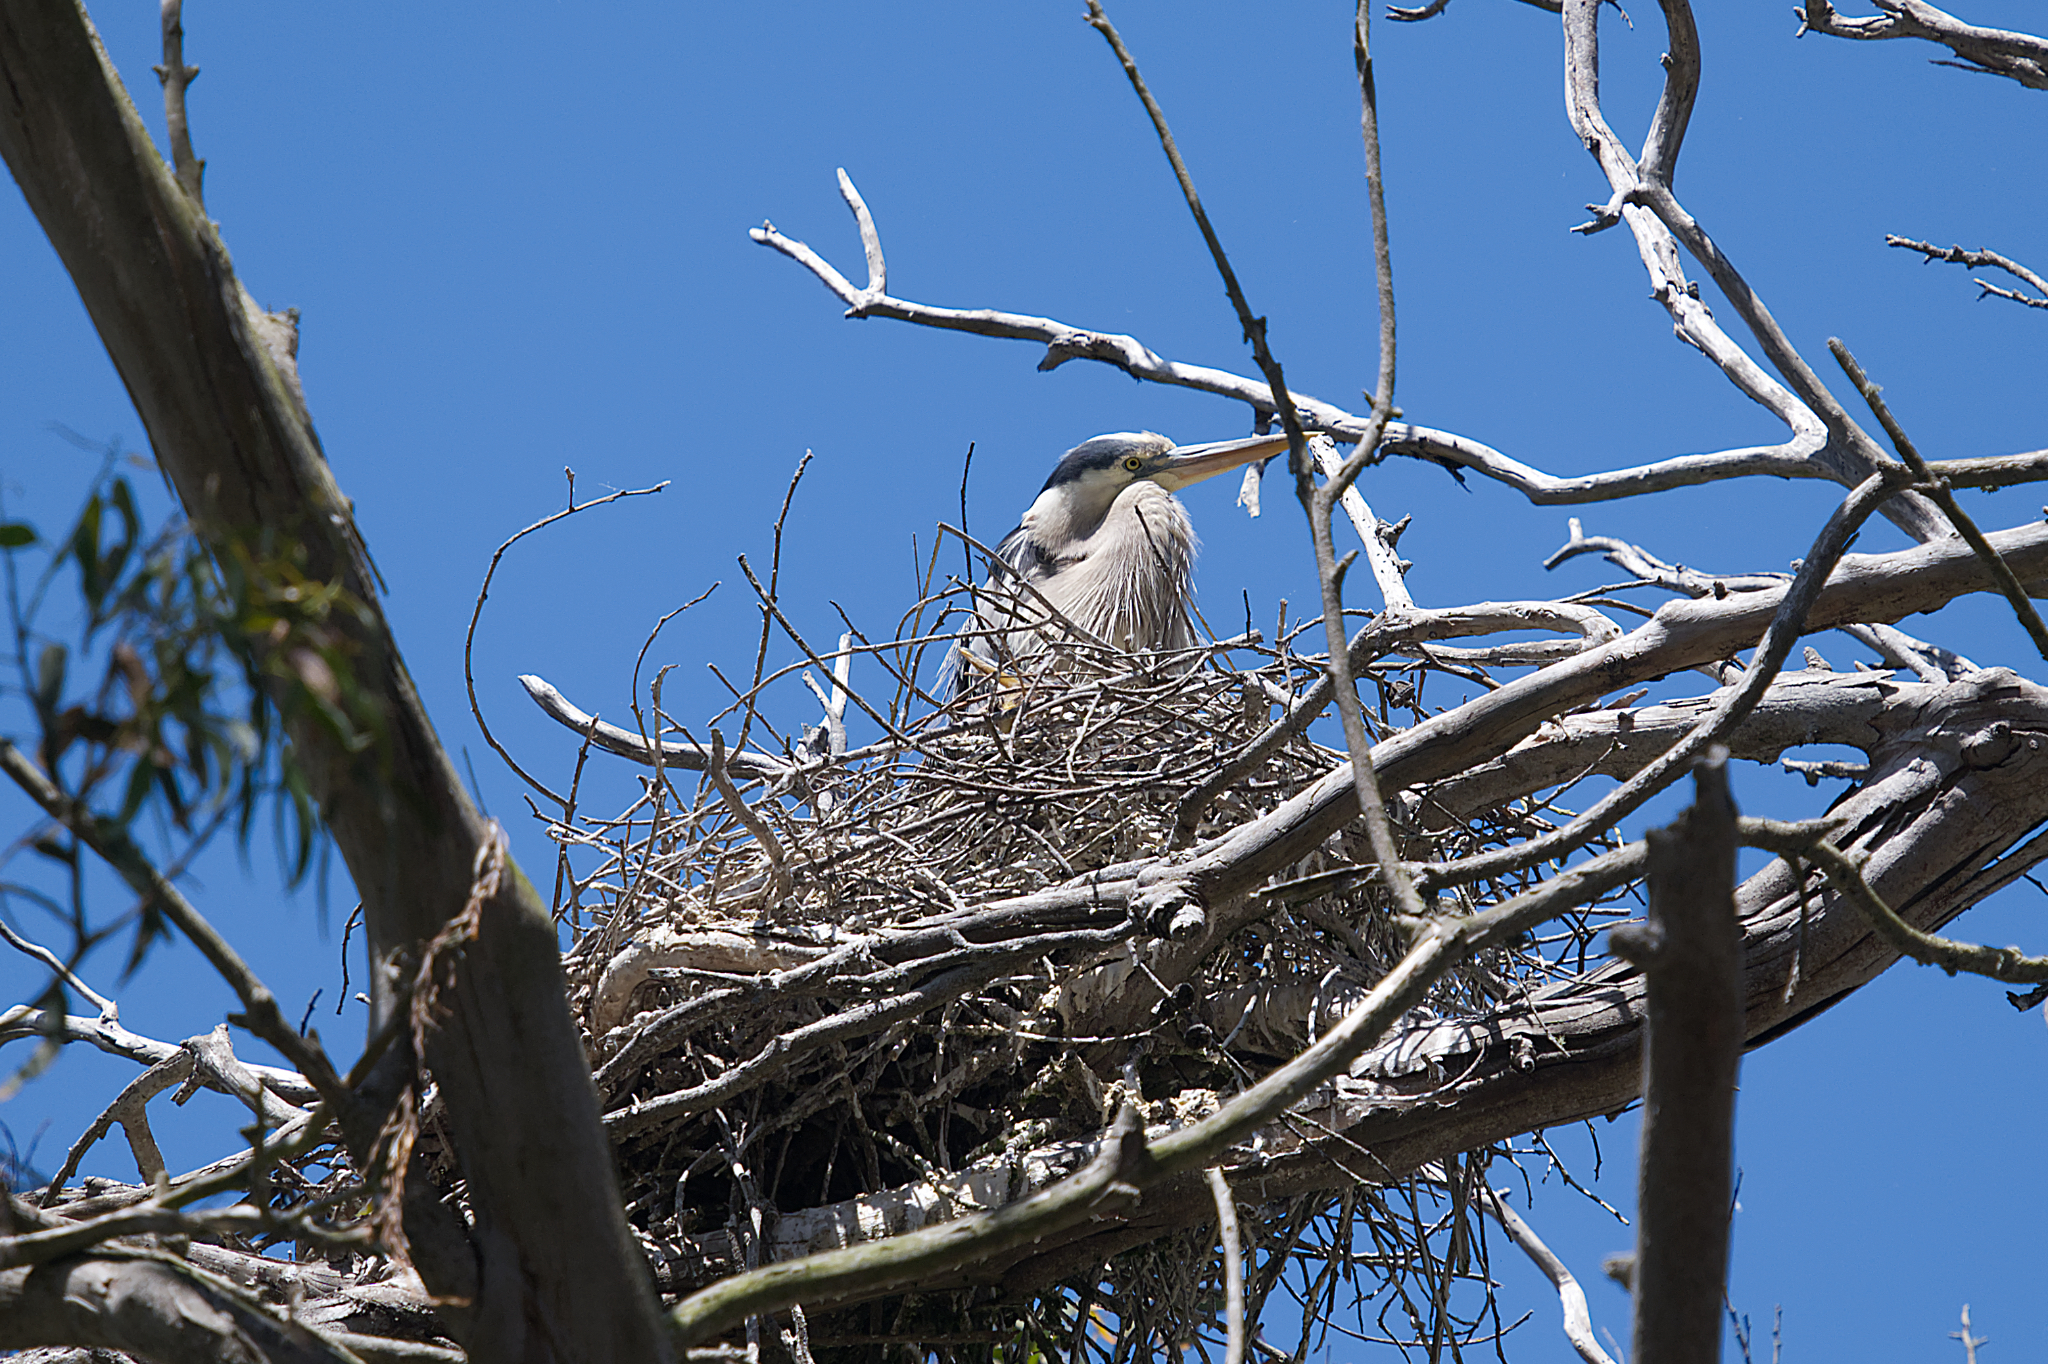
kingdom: Animalia
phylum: Chordata
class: Aves
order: Pelecaniformes
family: Ardeidae
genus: Ardea
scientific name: Ardea herodias
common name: Great blue heron
